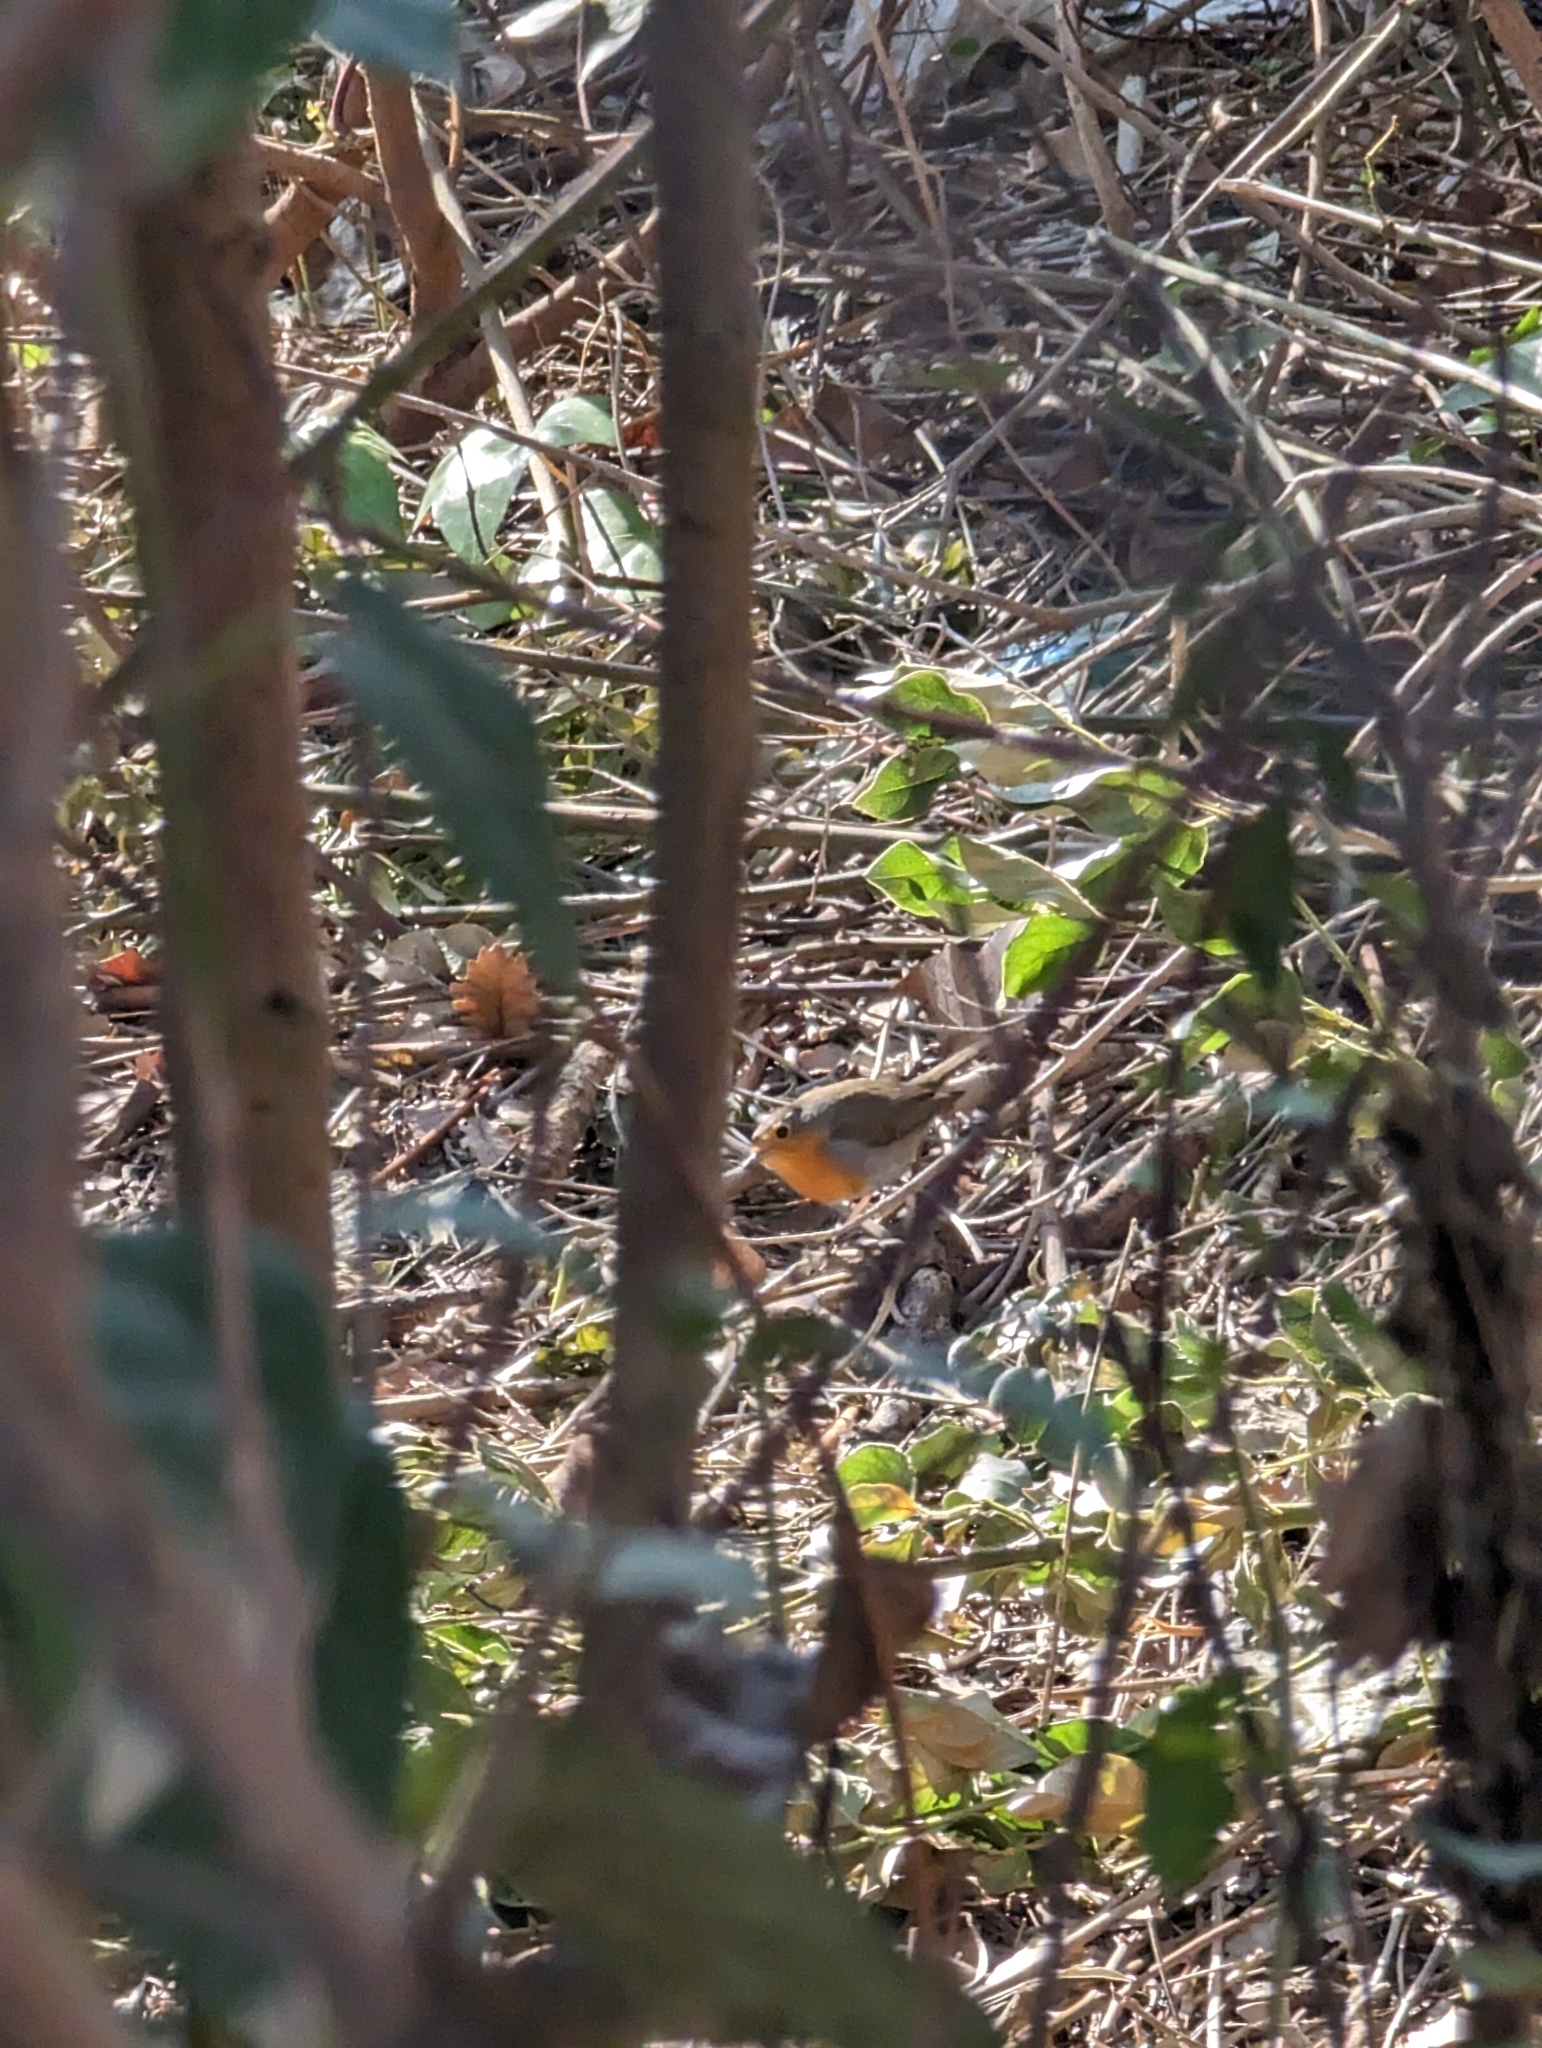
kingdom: Animalia
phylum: Chordata
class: Aves
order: Passeriformes
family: Muscicapidae
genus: Erithacus
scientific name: Erithacus rubecula
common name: European robin
